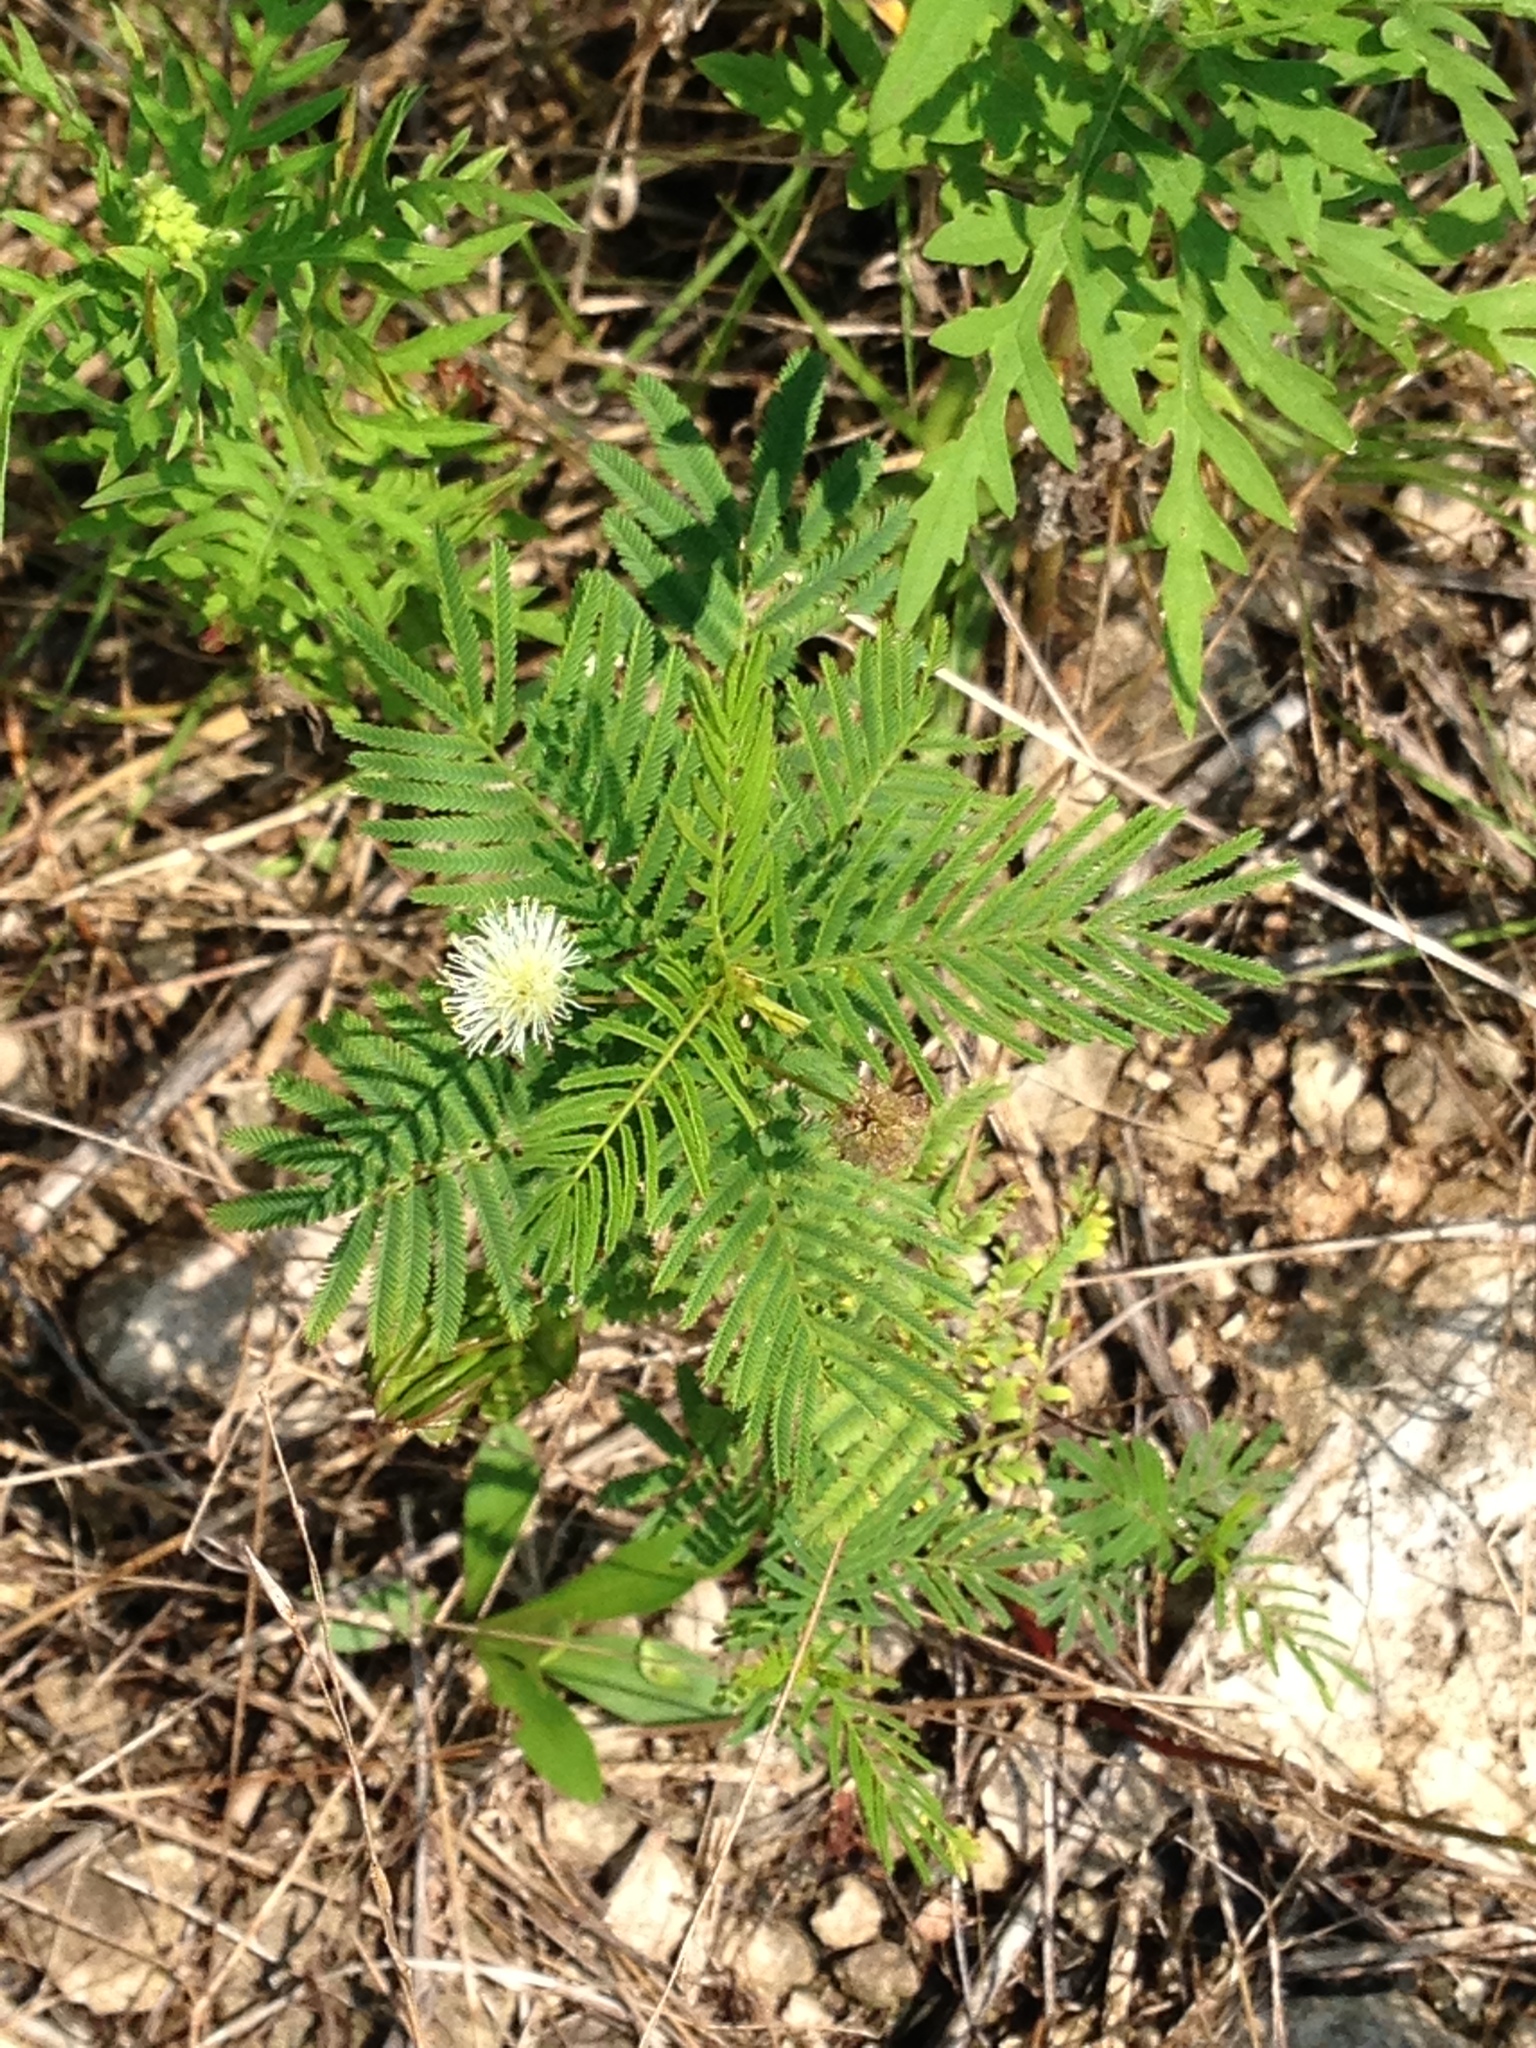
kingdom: Plantae
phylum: Tracheophyta
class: Magnoliopsida
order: Fabales
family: Fabaceae
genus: Desmanthus
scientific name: Desmanthus illinoensis
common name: Illinois bundle-flower
